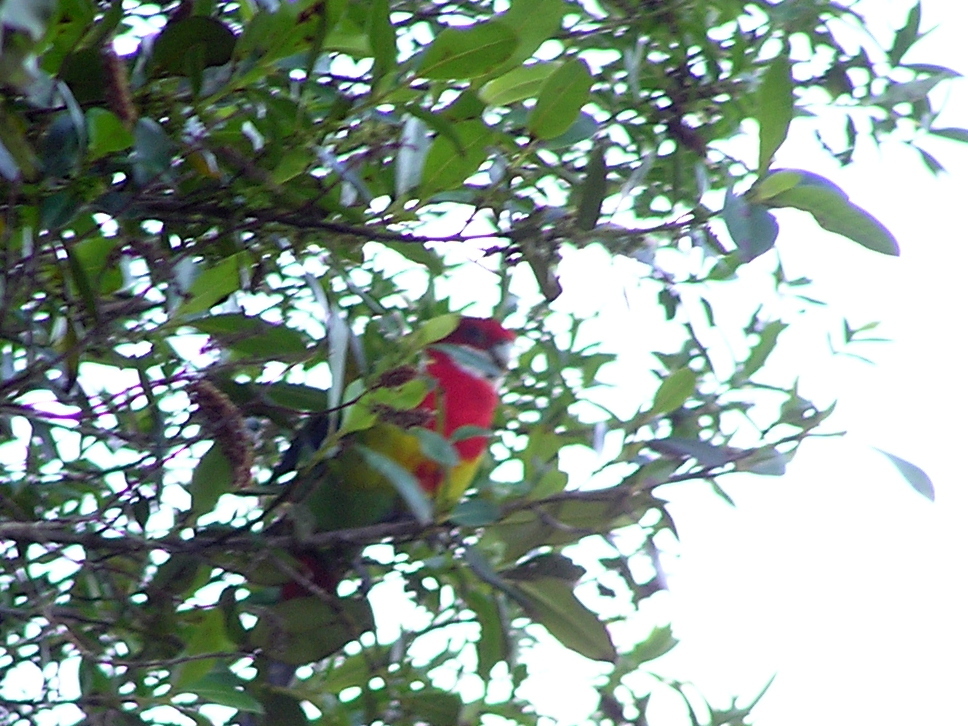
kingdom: Animalia
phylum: Chordata
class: Aves
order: Psittaciformes
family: Psittacidae
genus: Platycercus
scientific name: Platycercus eximius
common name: Eastern rosella
